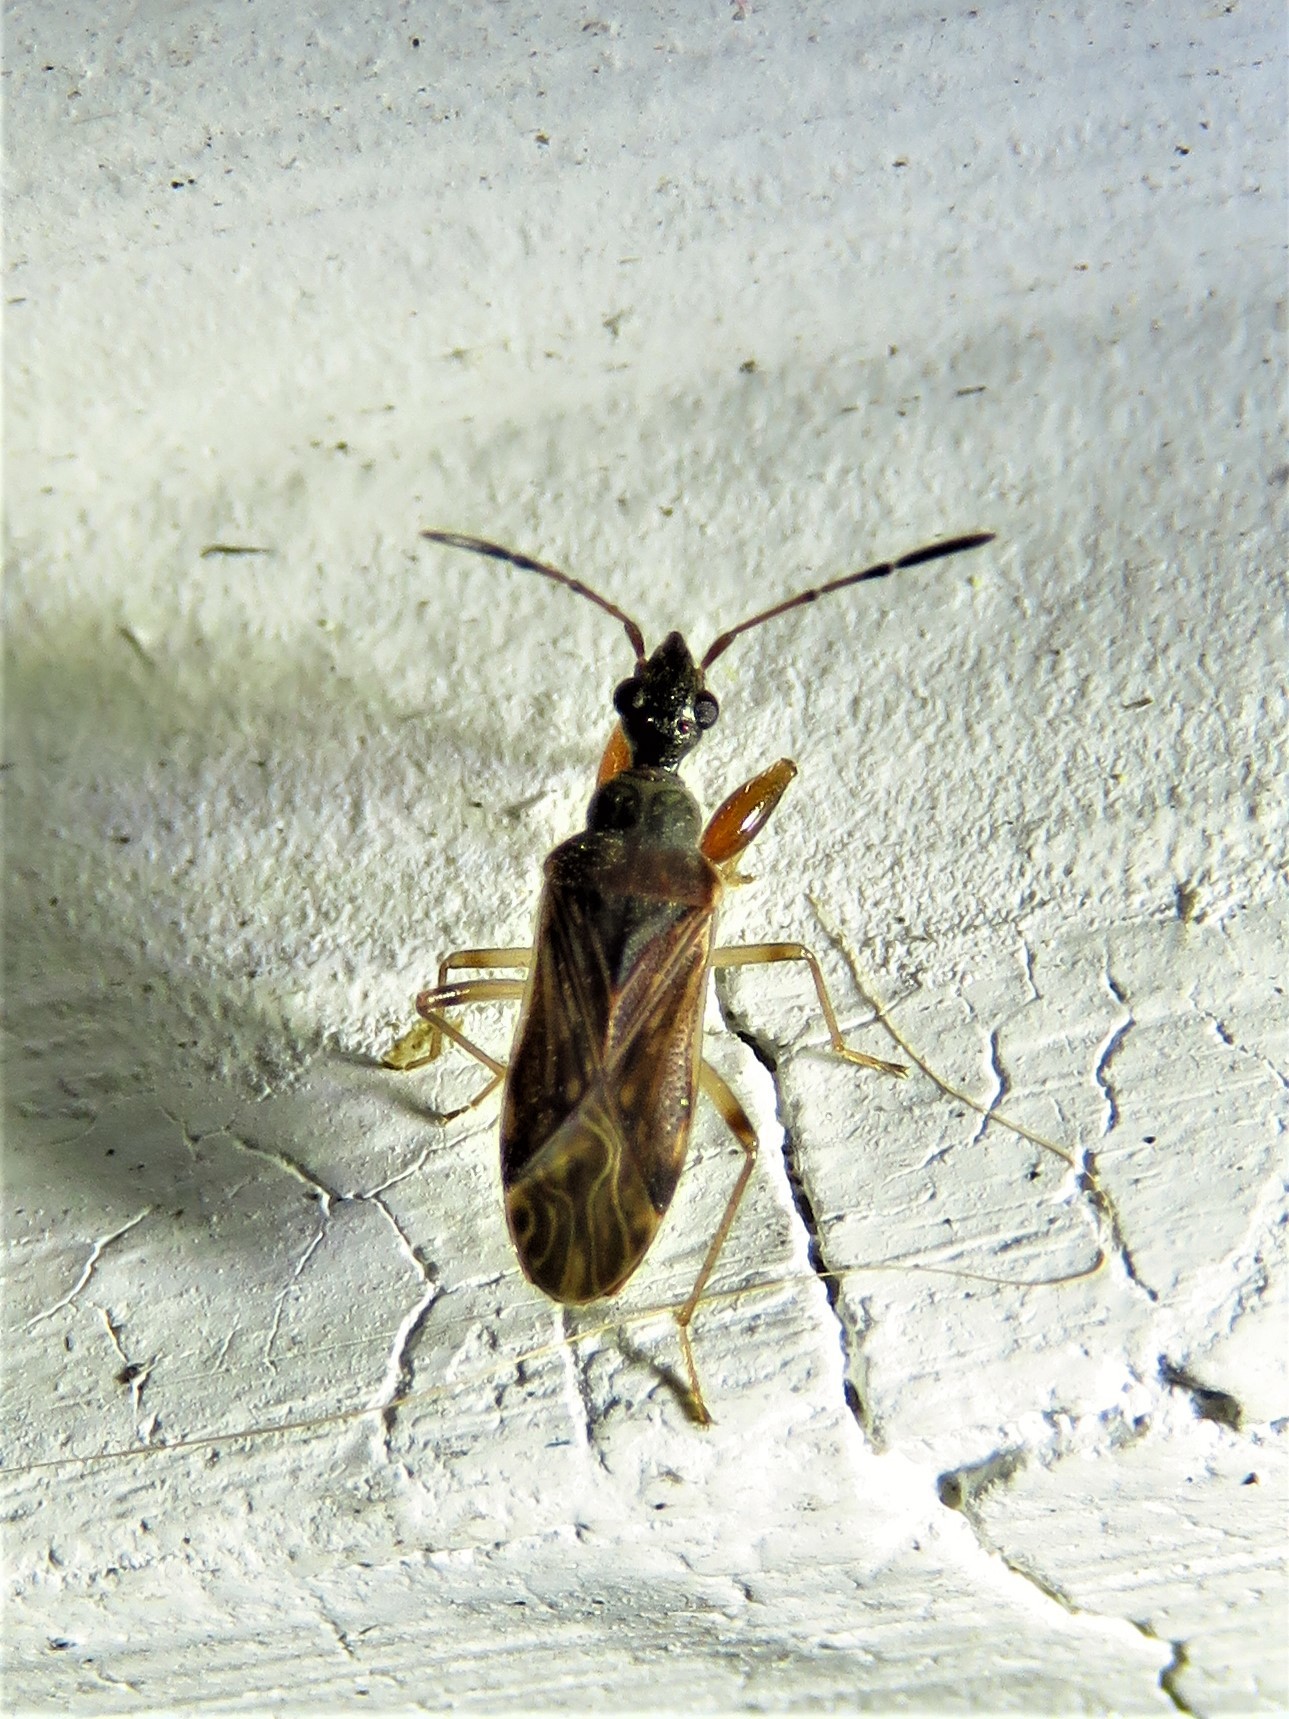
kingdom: Animalia
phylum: Arthropoda
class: Insecta
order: Hemiptera
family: Rhyparochromidae
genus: Heraeus
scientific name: Heraeus plebejus
